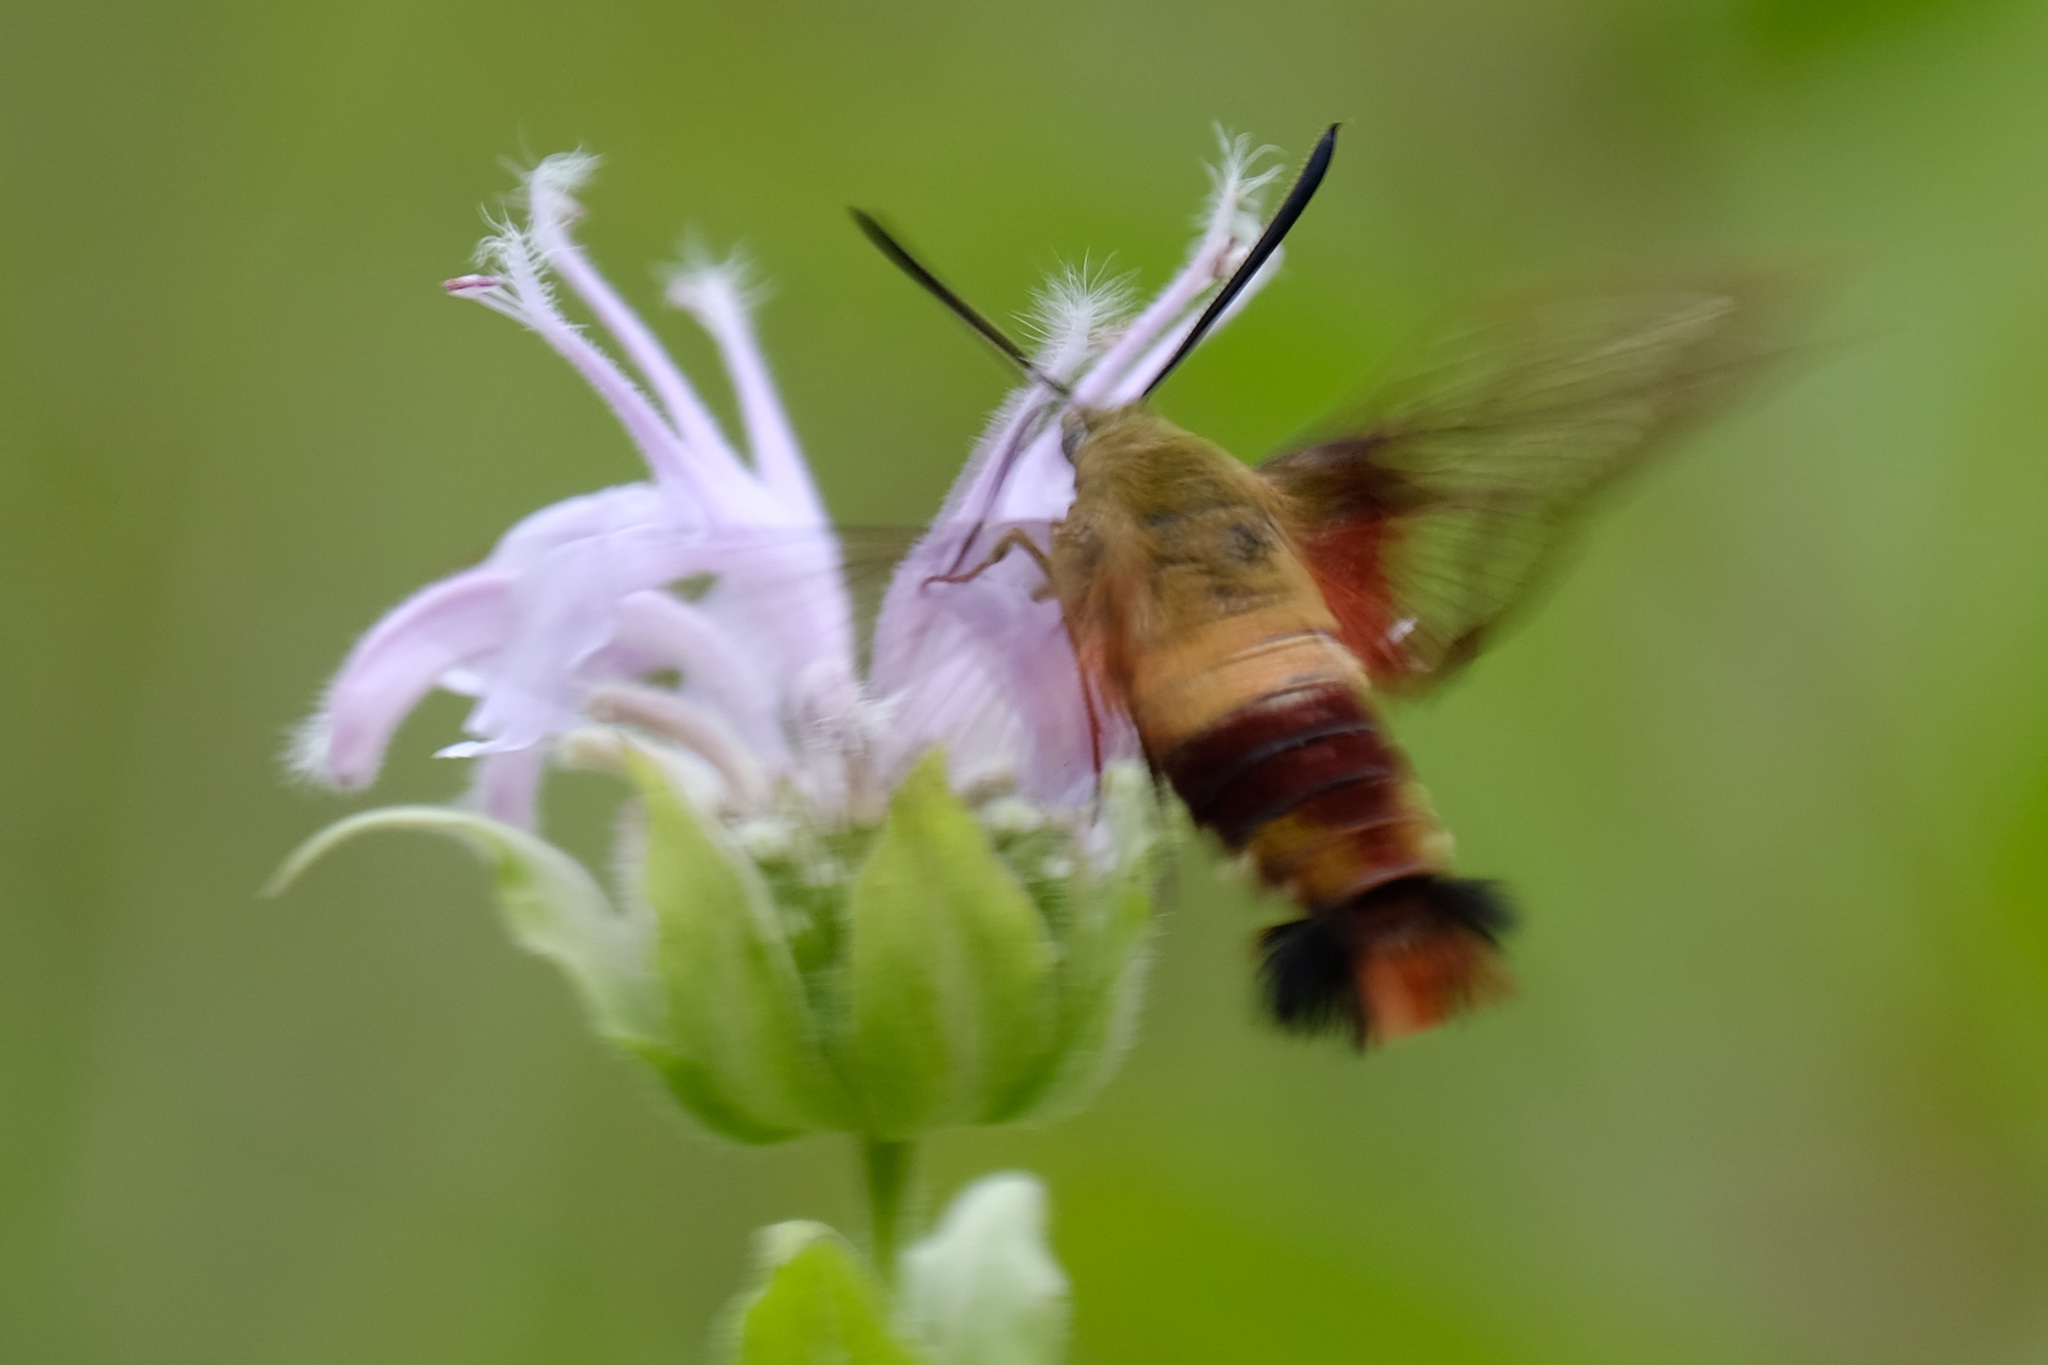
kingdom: Animalia
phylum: Arthropoda
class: Insecta
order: Lepidoptera
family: Sphingidae
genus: Hemaris
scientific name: Hemaris thysbe
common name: Common clear-wing
